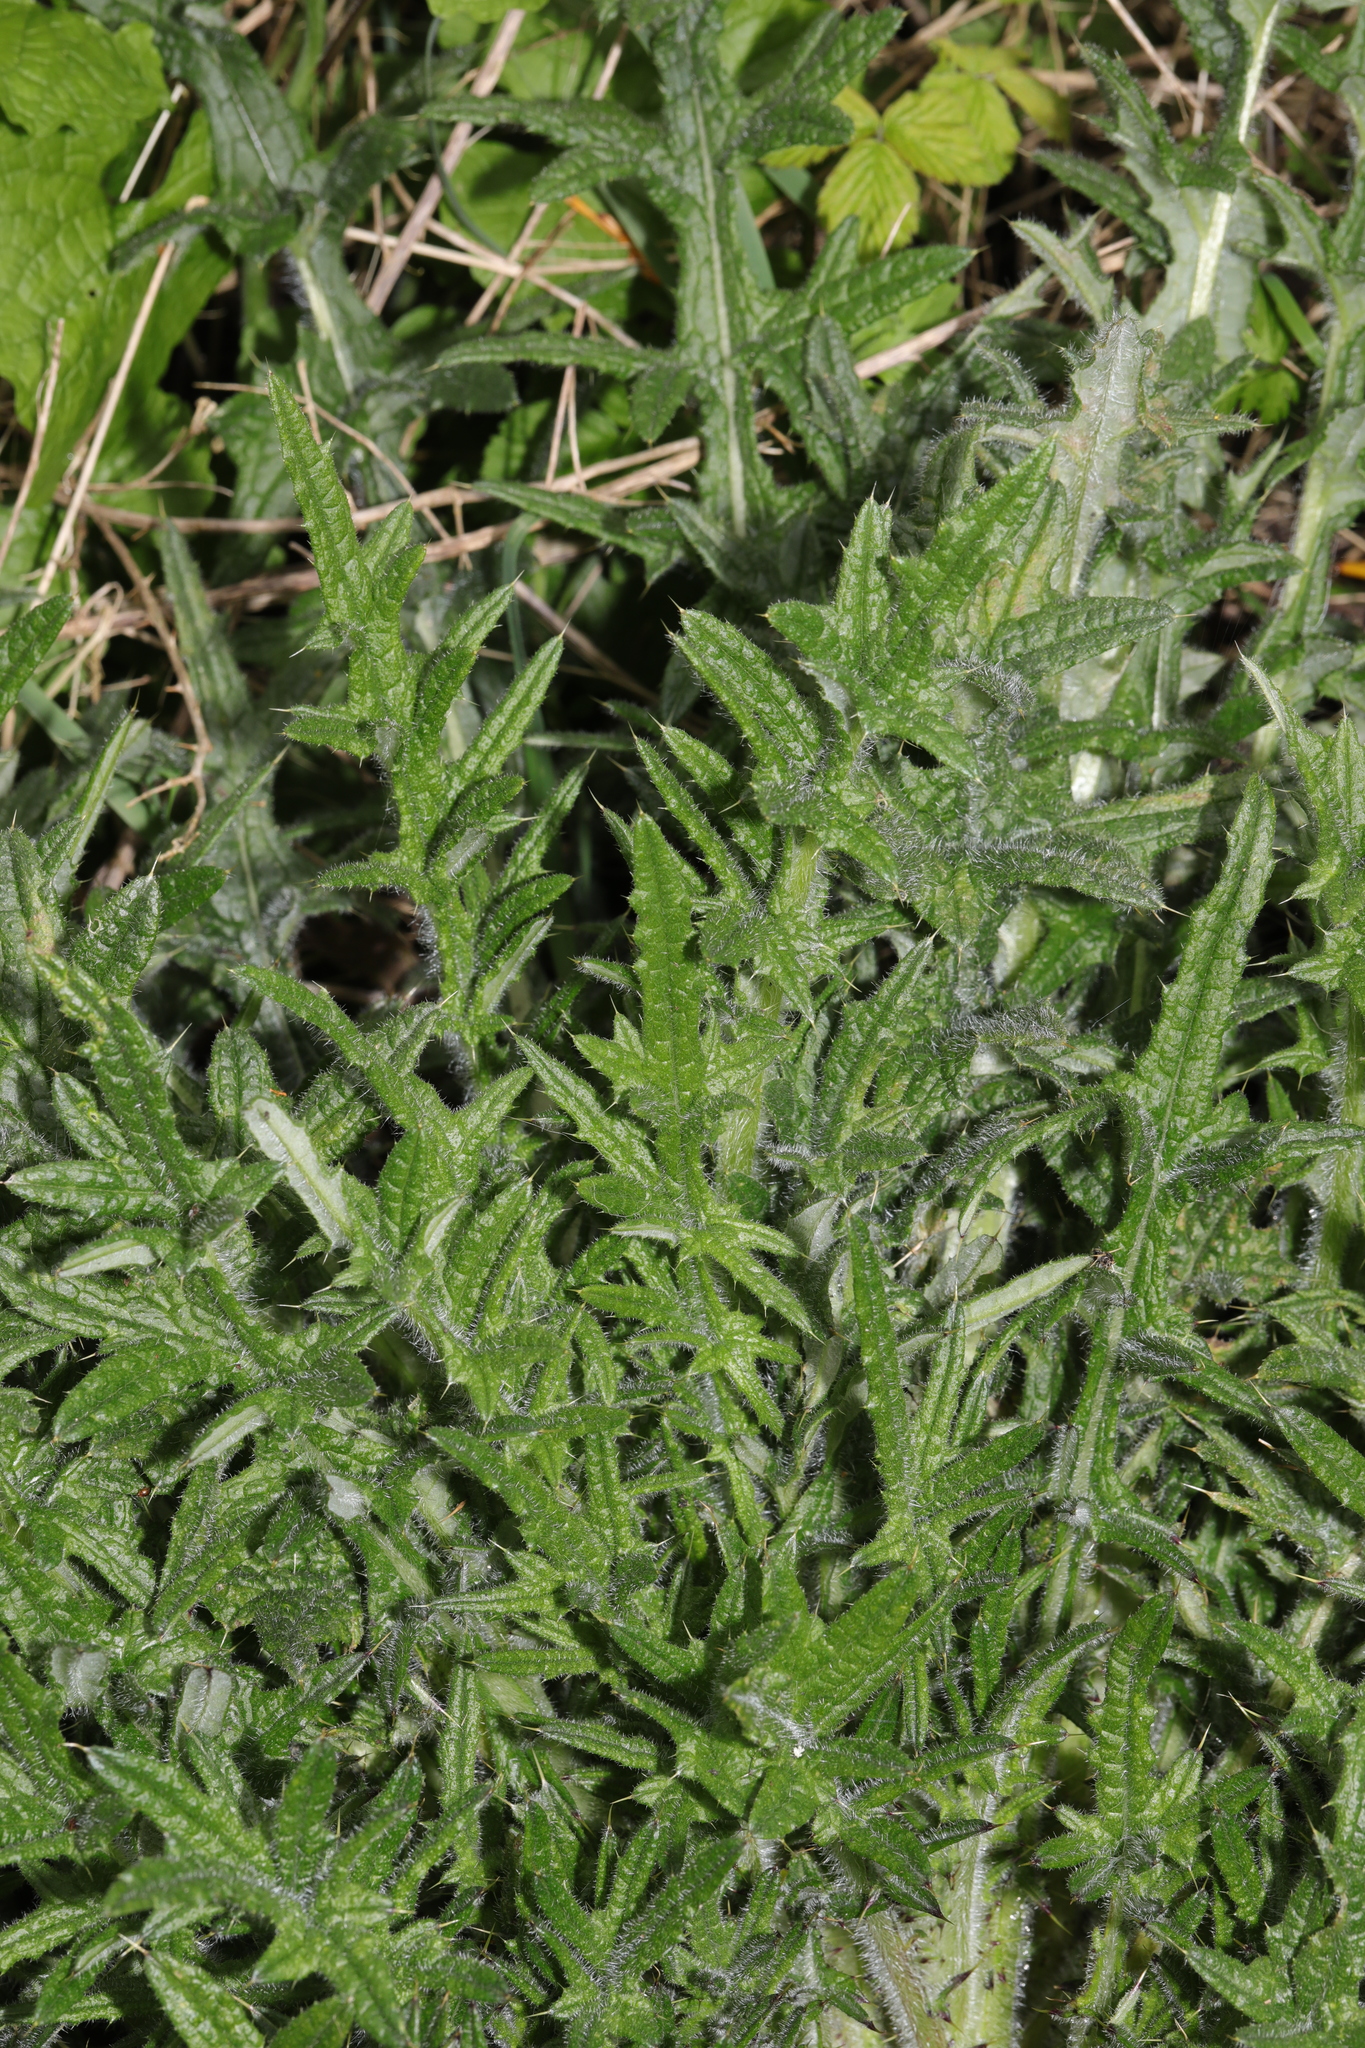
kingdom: Plantae
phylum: Tracheophyta
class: Magnoliopsida
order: Asterales
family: Asteraceae
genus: Cirsium
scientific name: Cirsium vulgare
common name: Bull thistle
